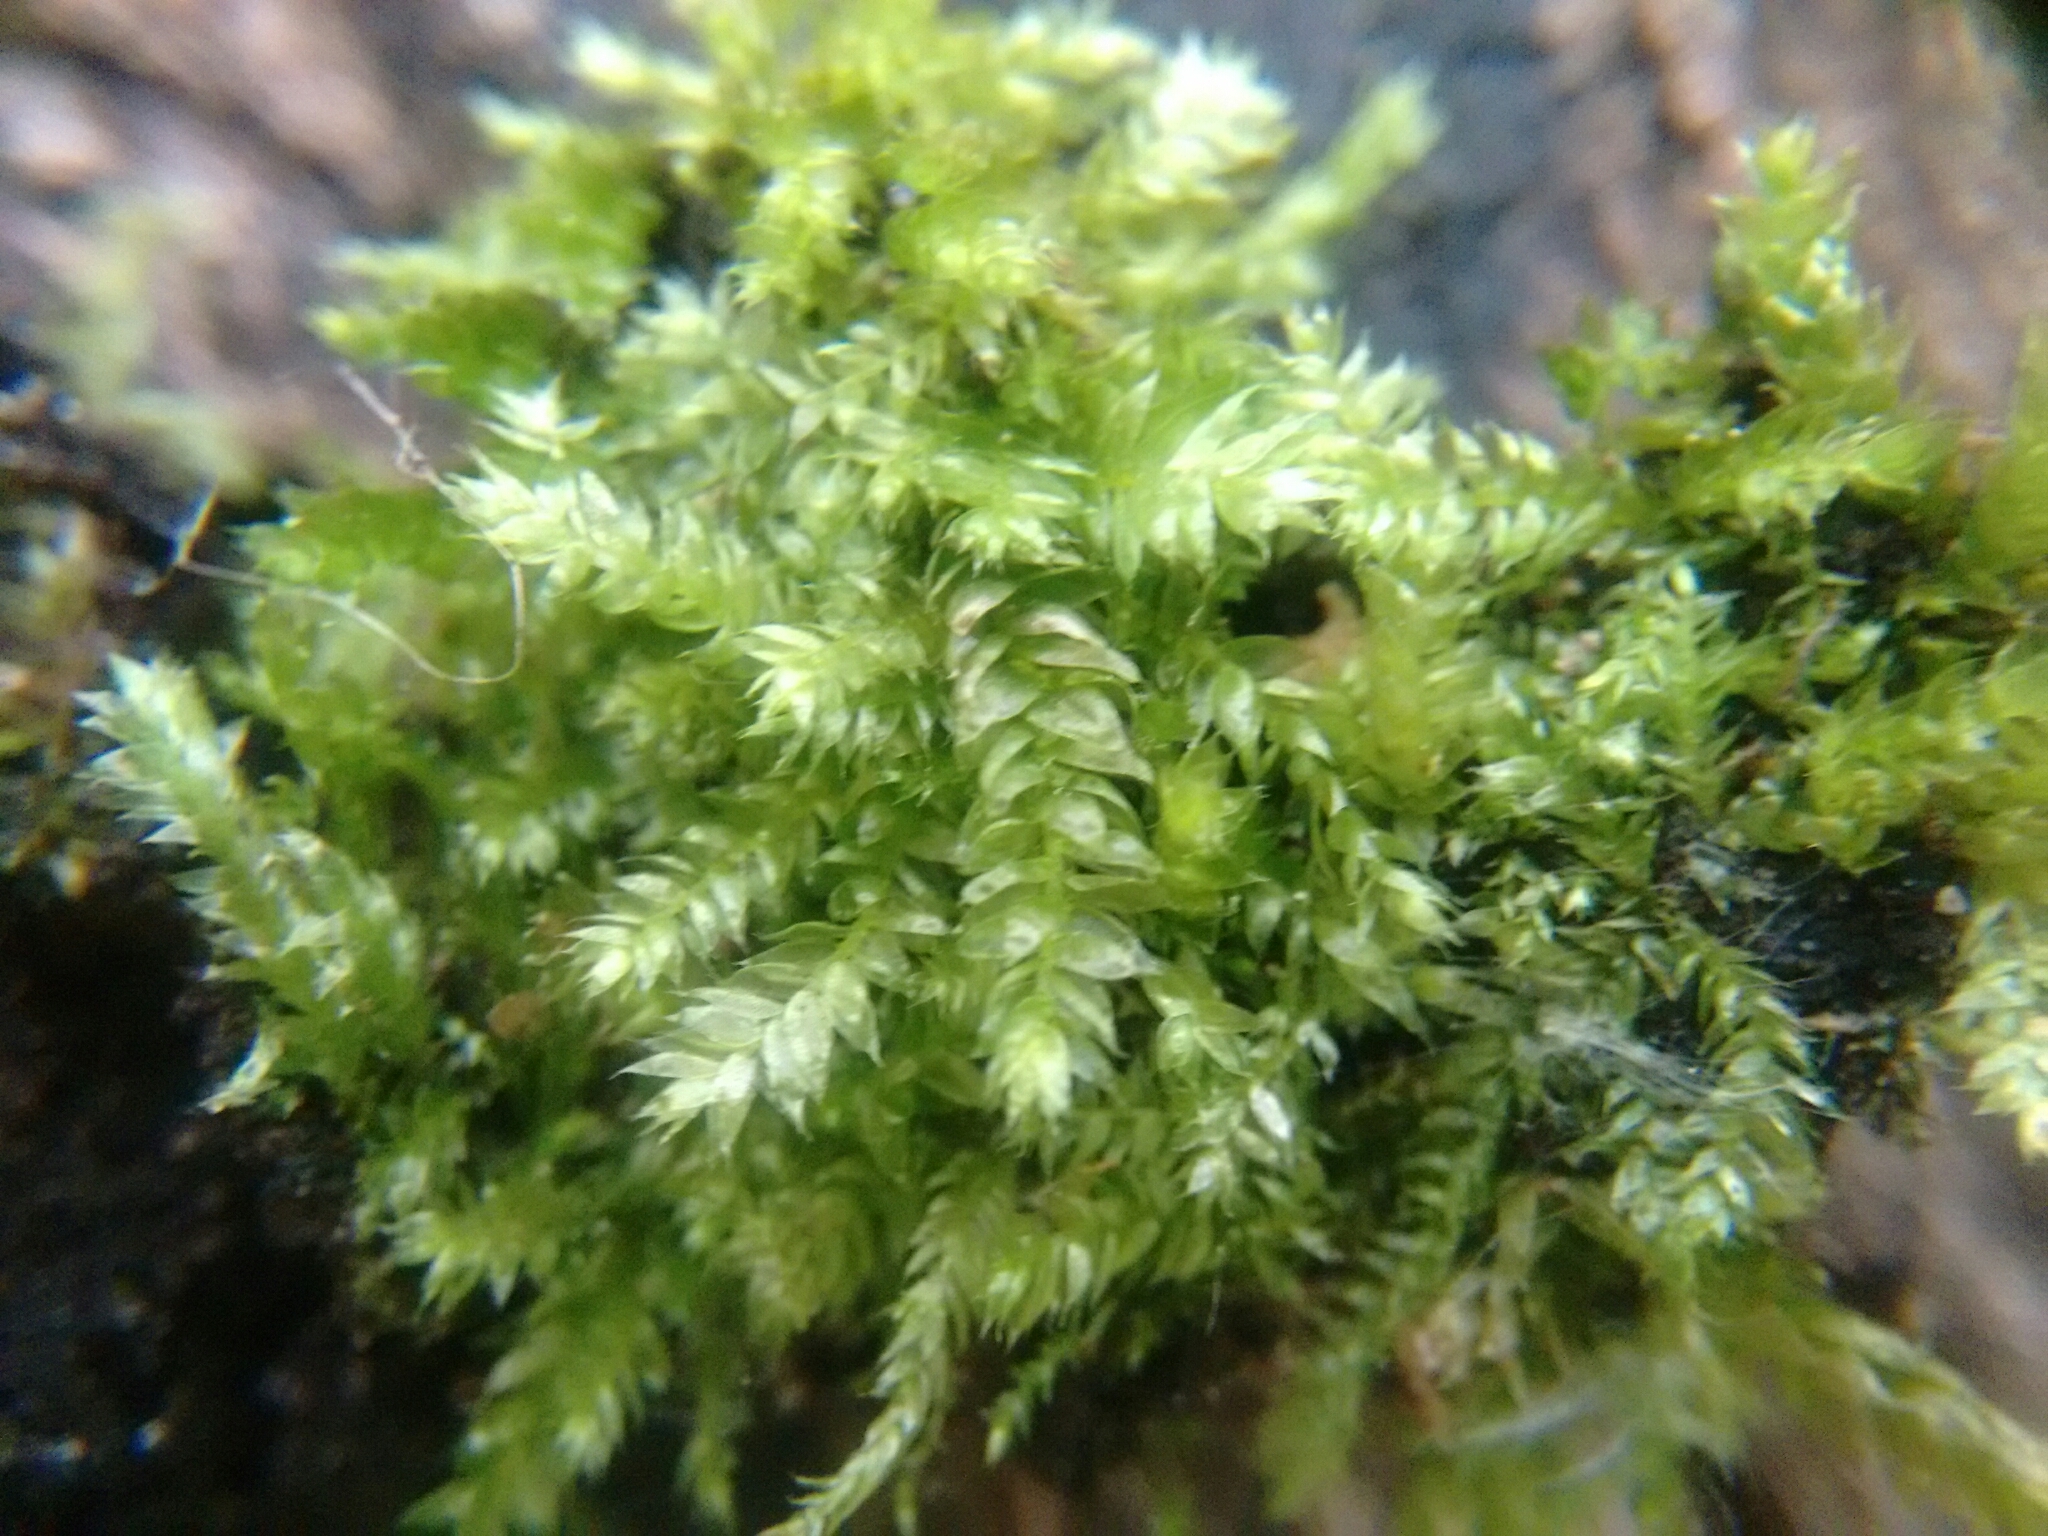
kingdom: Plantae
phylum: Bryophyta
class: Bryopsida
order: Hypnales
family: Plagiotheciaceae
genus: Plagiothecium
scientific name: Plagiothecium laetum
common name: Bright silk moss
